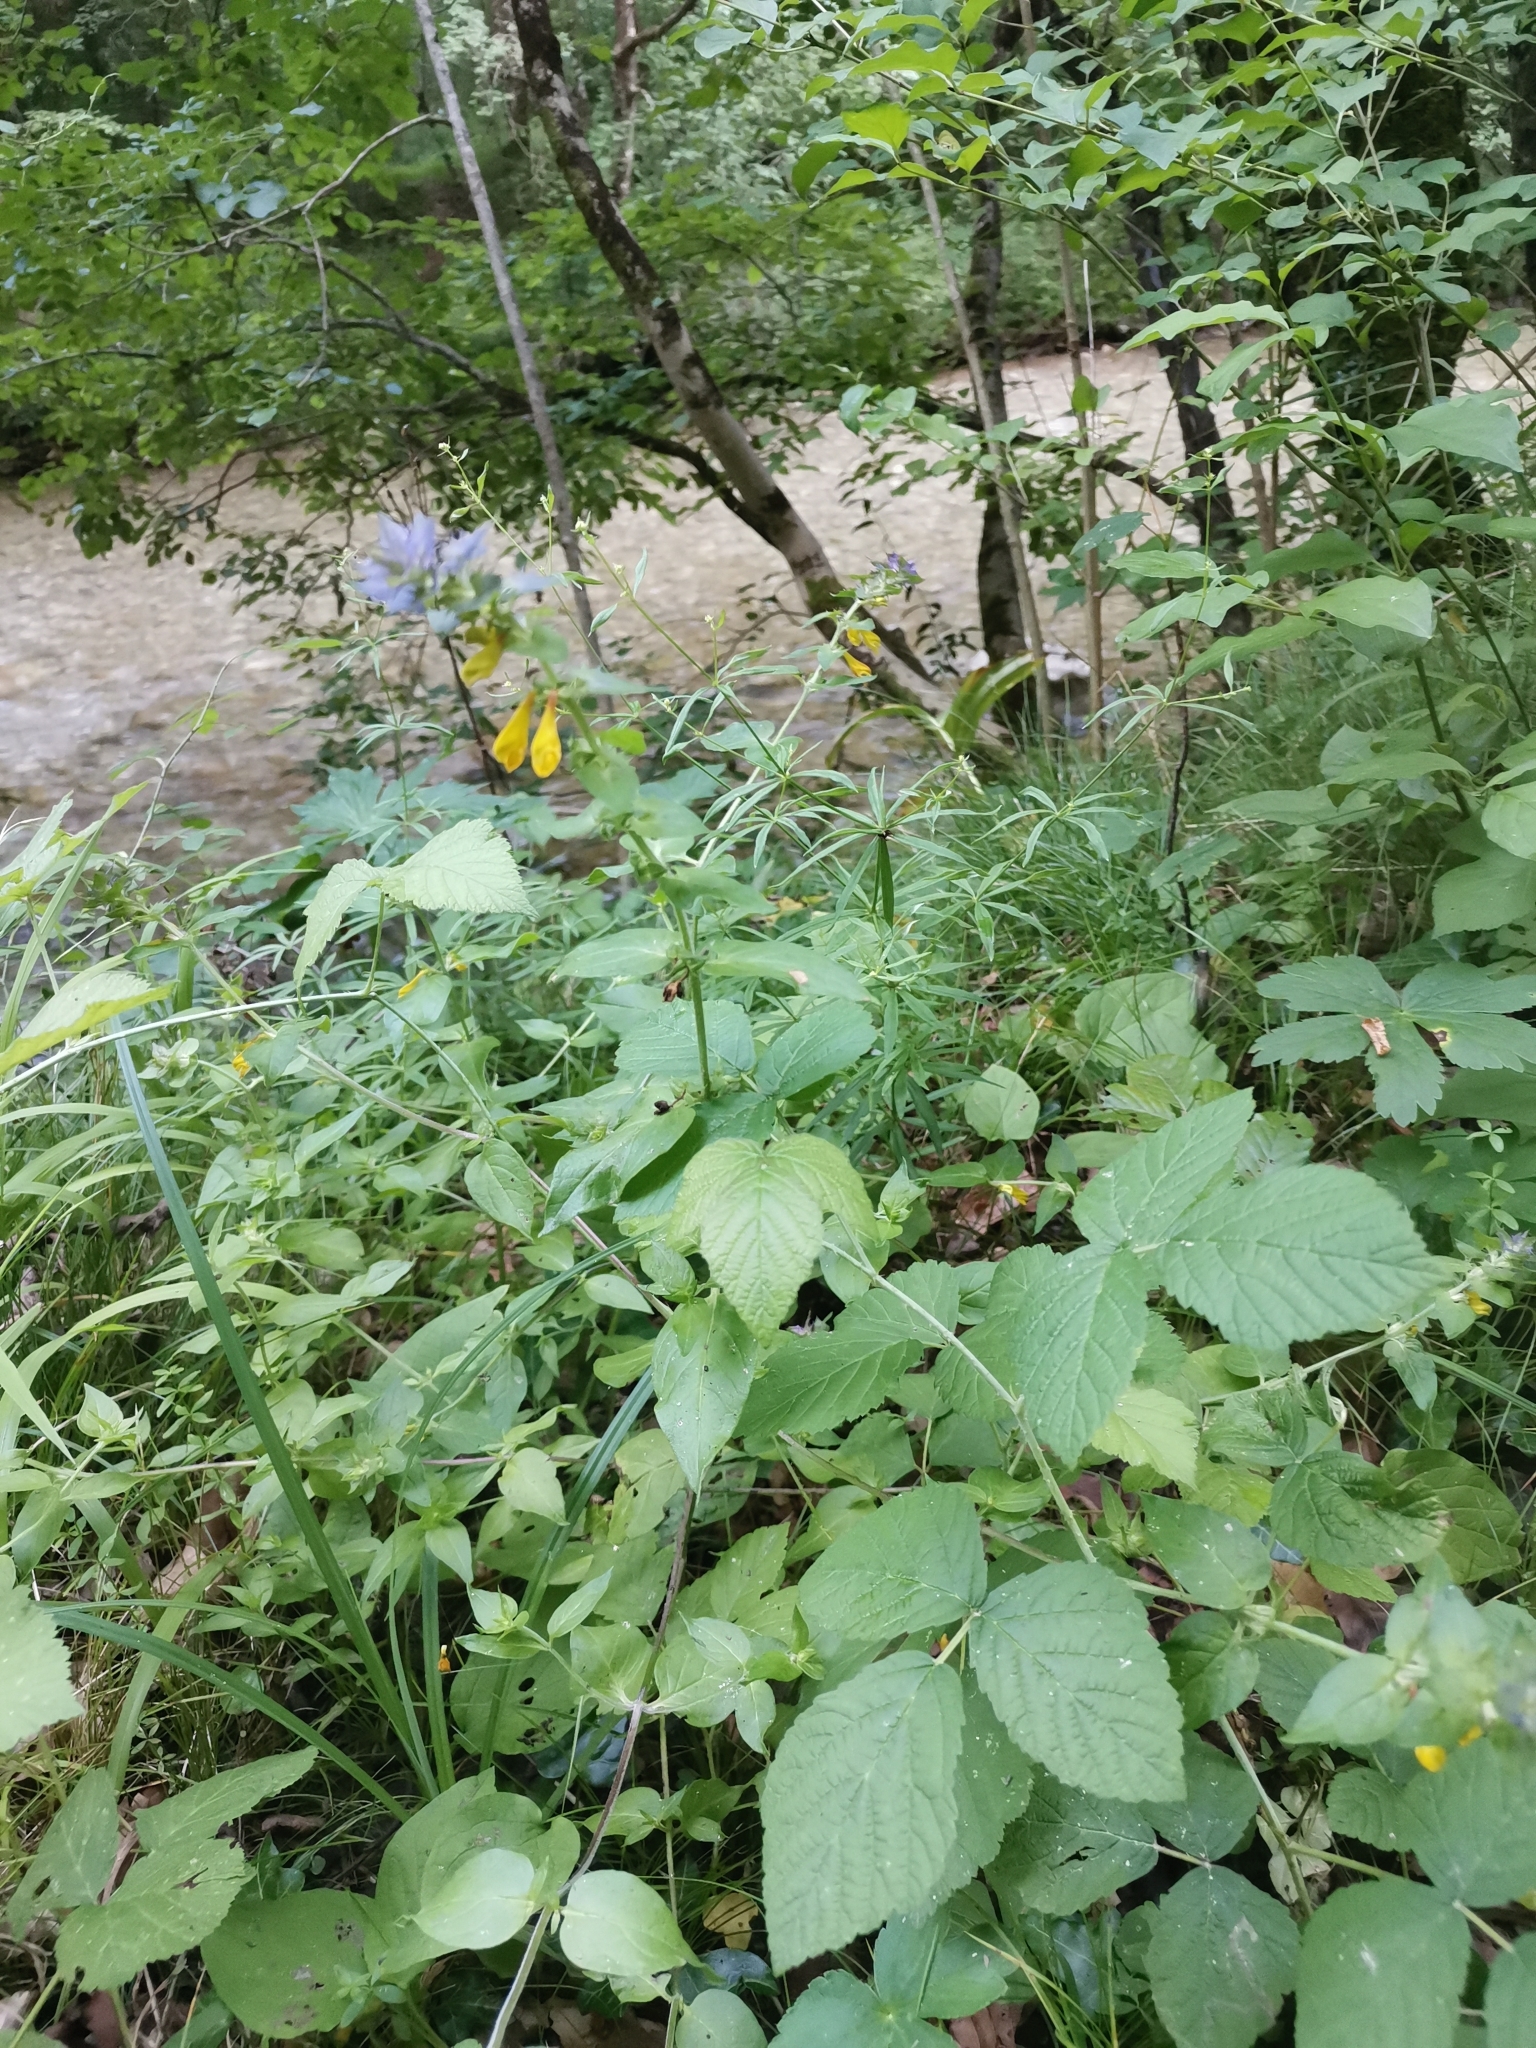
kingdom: Plantae
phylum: Tracheophyta
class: Magnoliopsida
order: Lamiales
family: Orobanchaceae
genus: Melampyrum
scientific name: Melampyrum nemorosum
